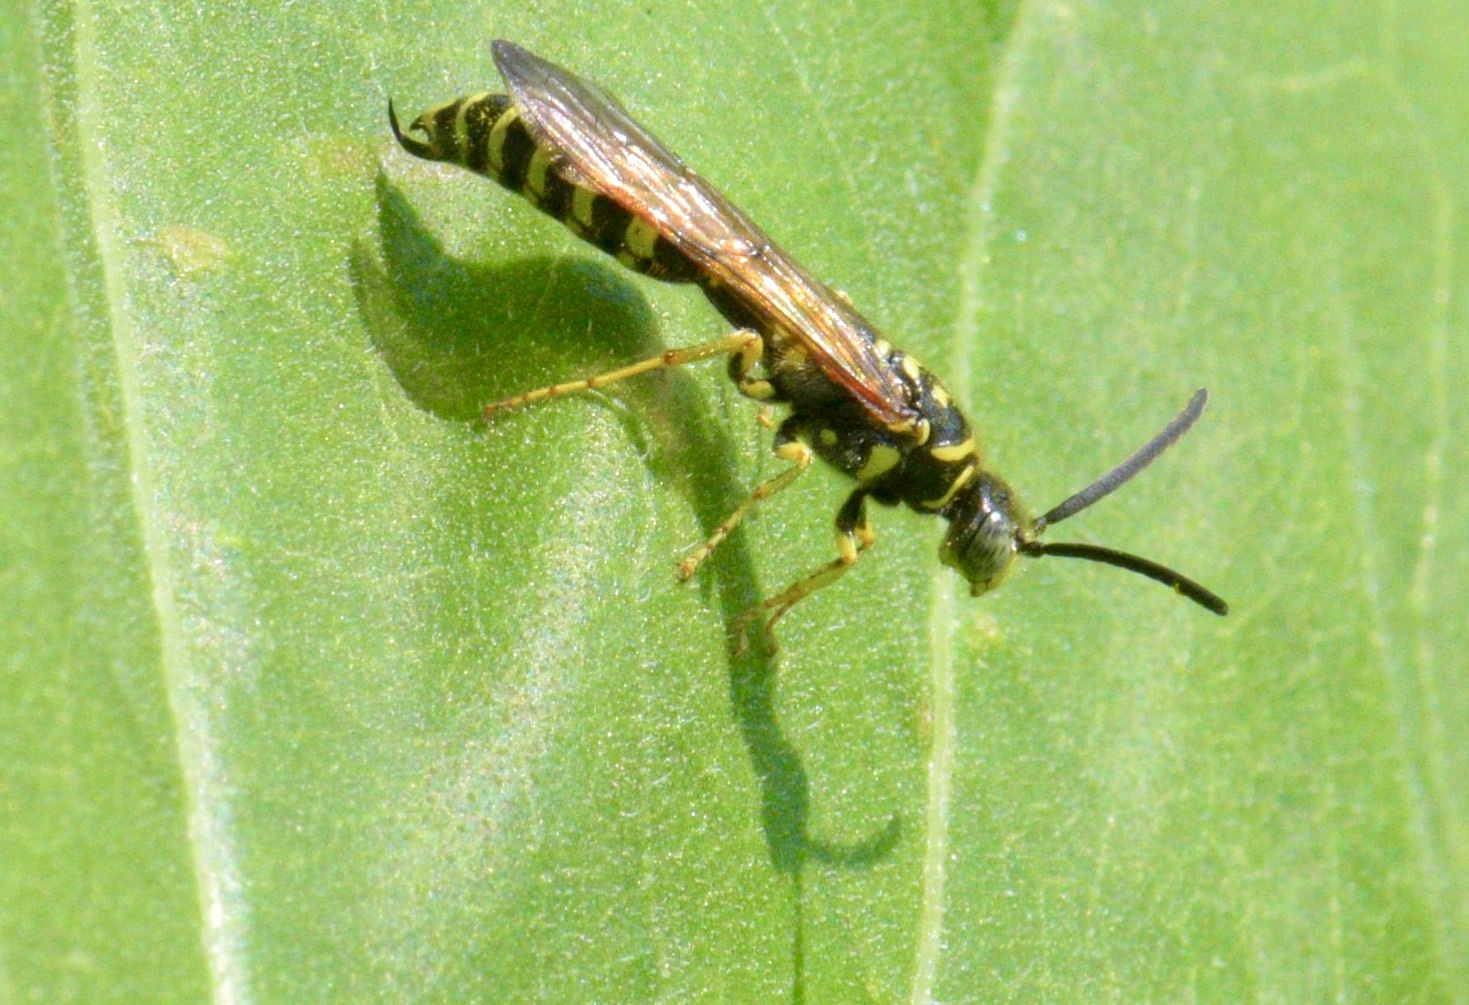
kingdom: Animalia
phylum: Arthropoda
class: Insecta
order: Hymenoptera
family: Tiphiidae
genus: Myzinum
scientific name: Myzinum quinquecinctum
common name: Five-banded thynnid wasp
